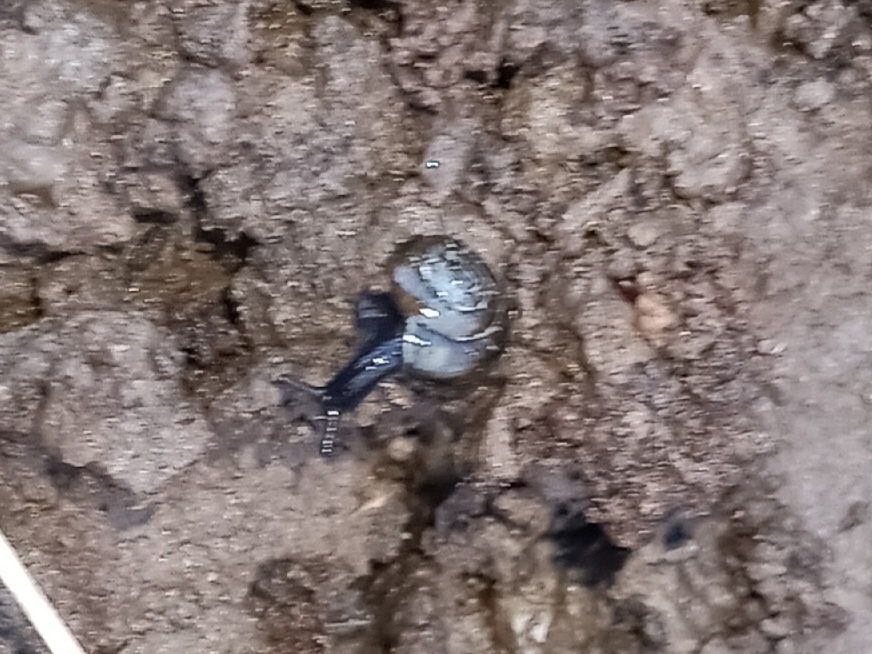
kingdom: Animalia
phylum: Mollusca
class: Gastropoda
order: Stylommatophora
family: Gastrodontidae
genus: Zonitoides
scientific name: Zonitoides nitidus
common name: Shiny glass snail
